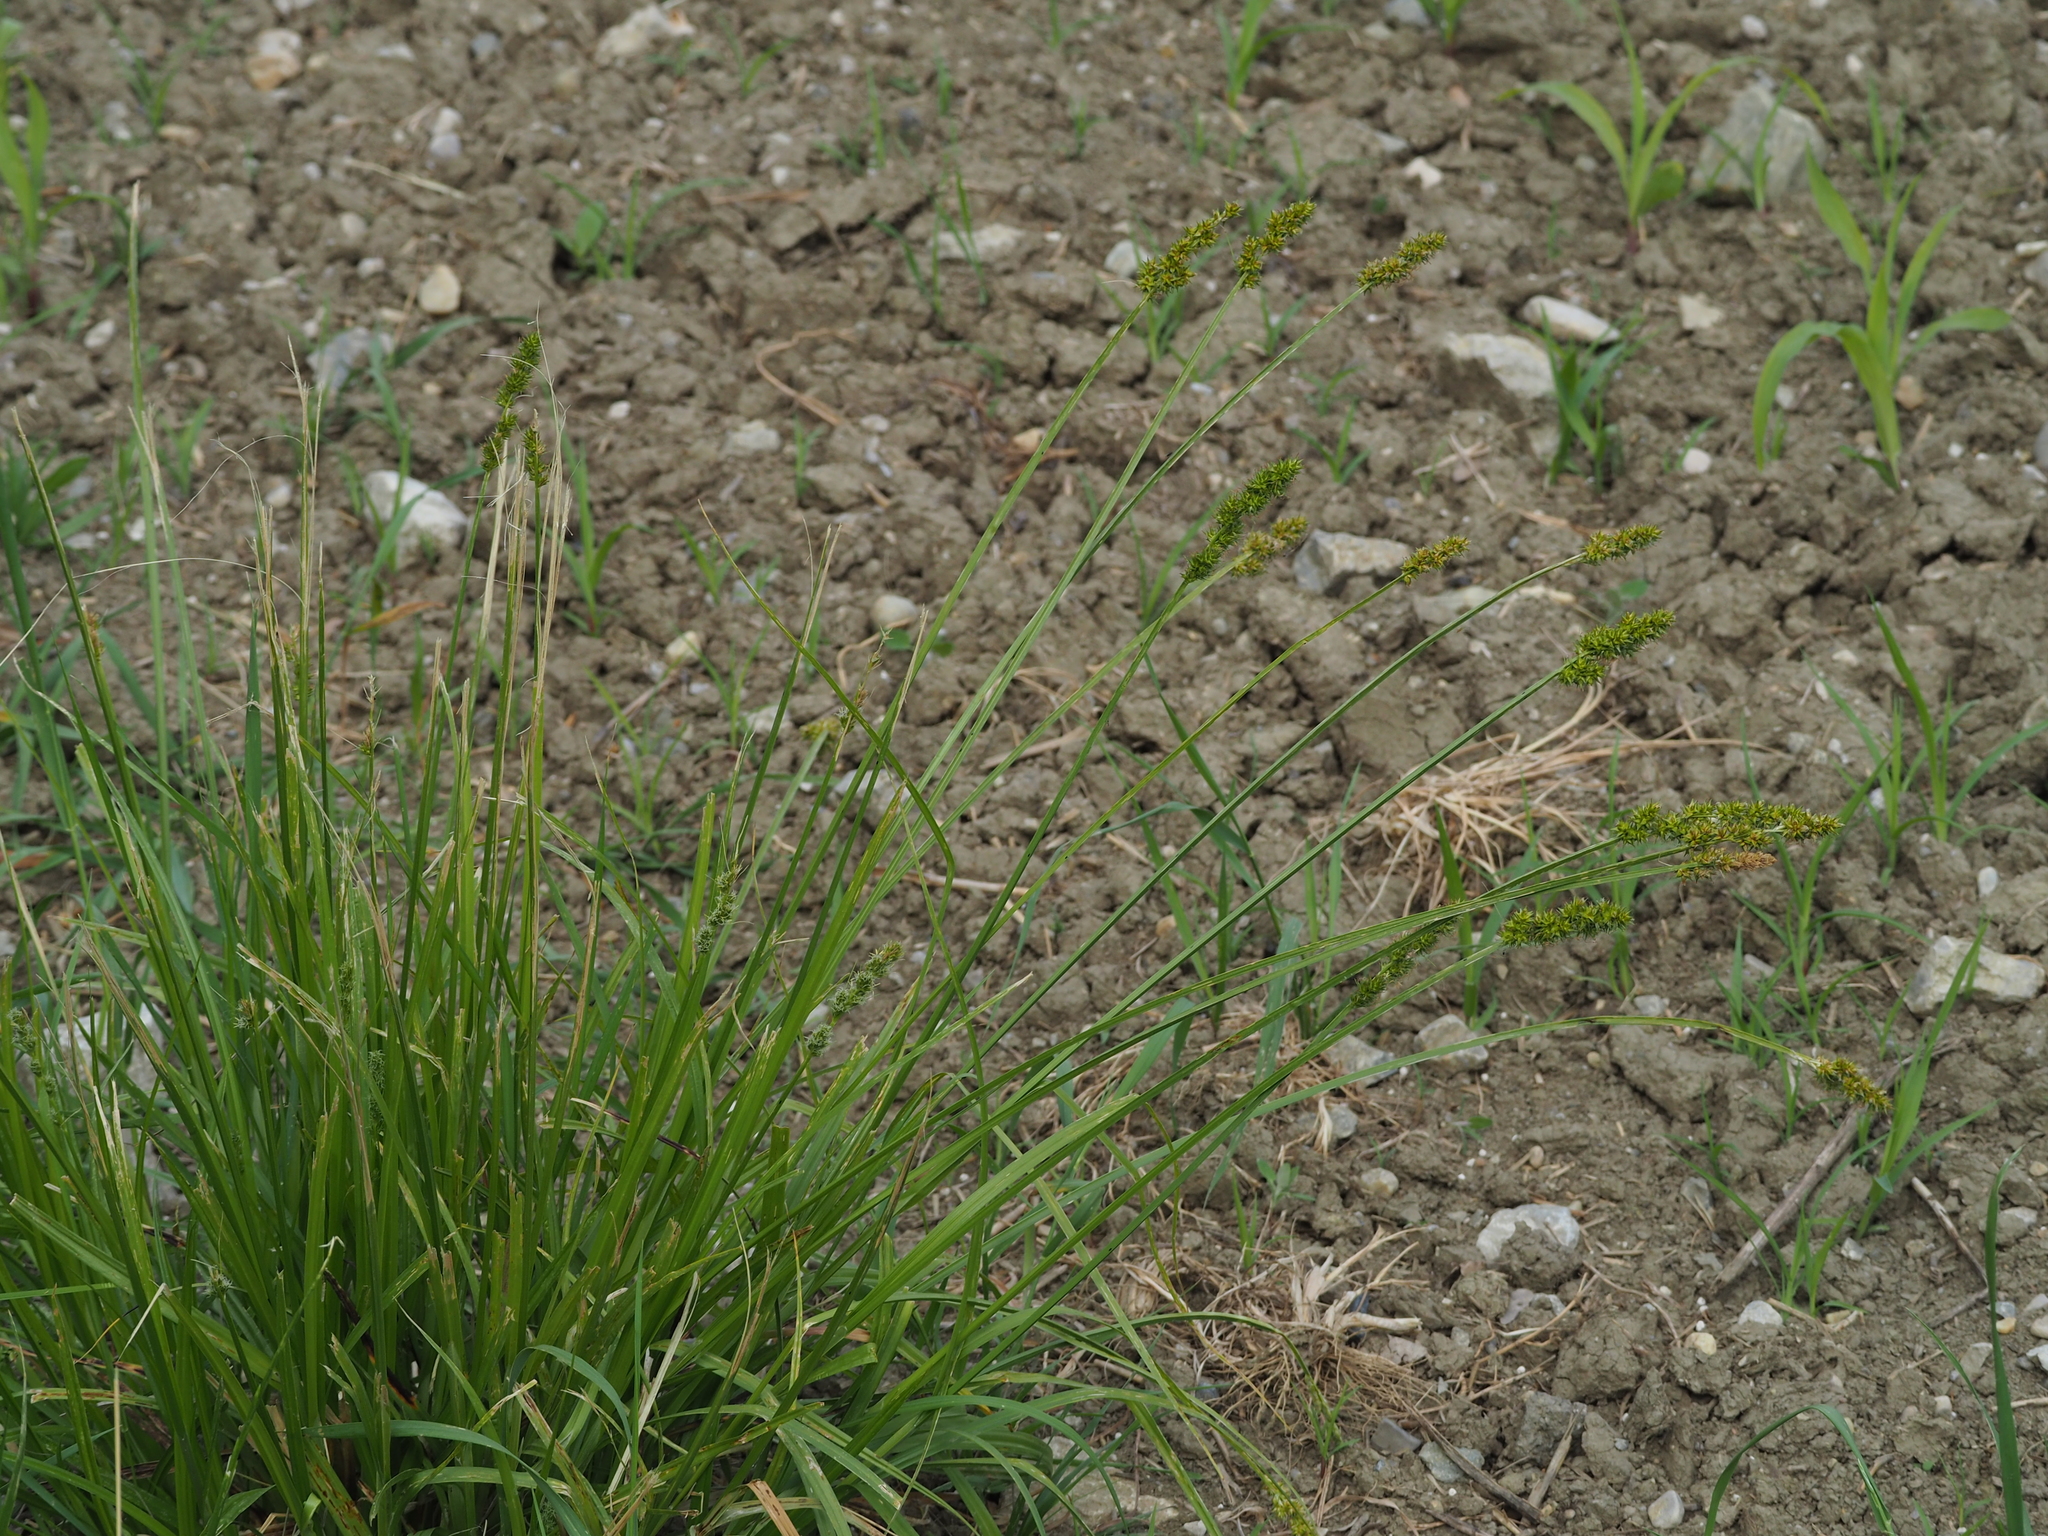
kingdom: Plantae
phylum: Tracheophyta
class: Liliopsida
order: Poales
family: Cyperaceae
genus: Carex
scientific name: Carex otrubae
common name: False fox-sedge
